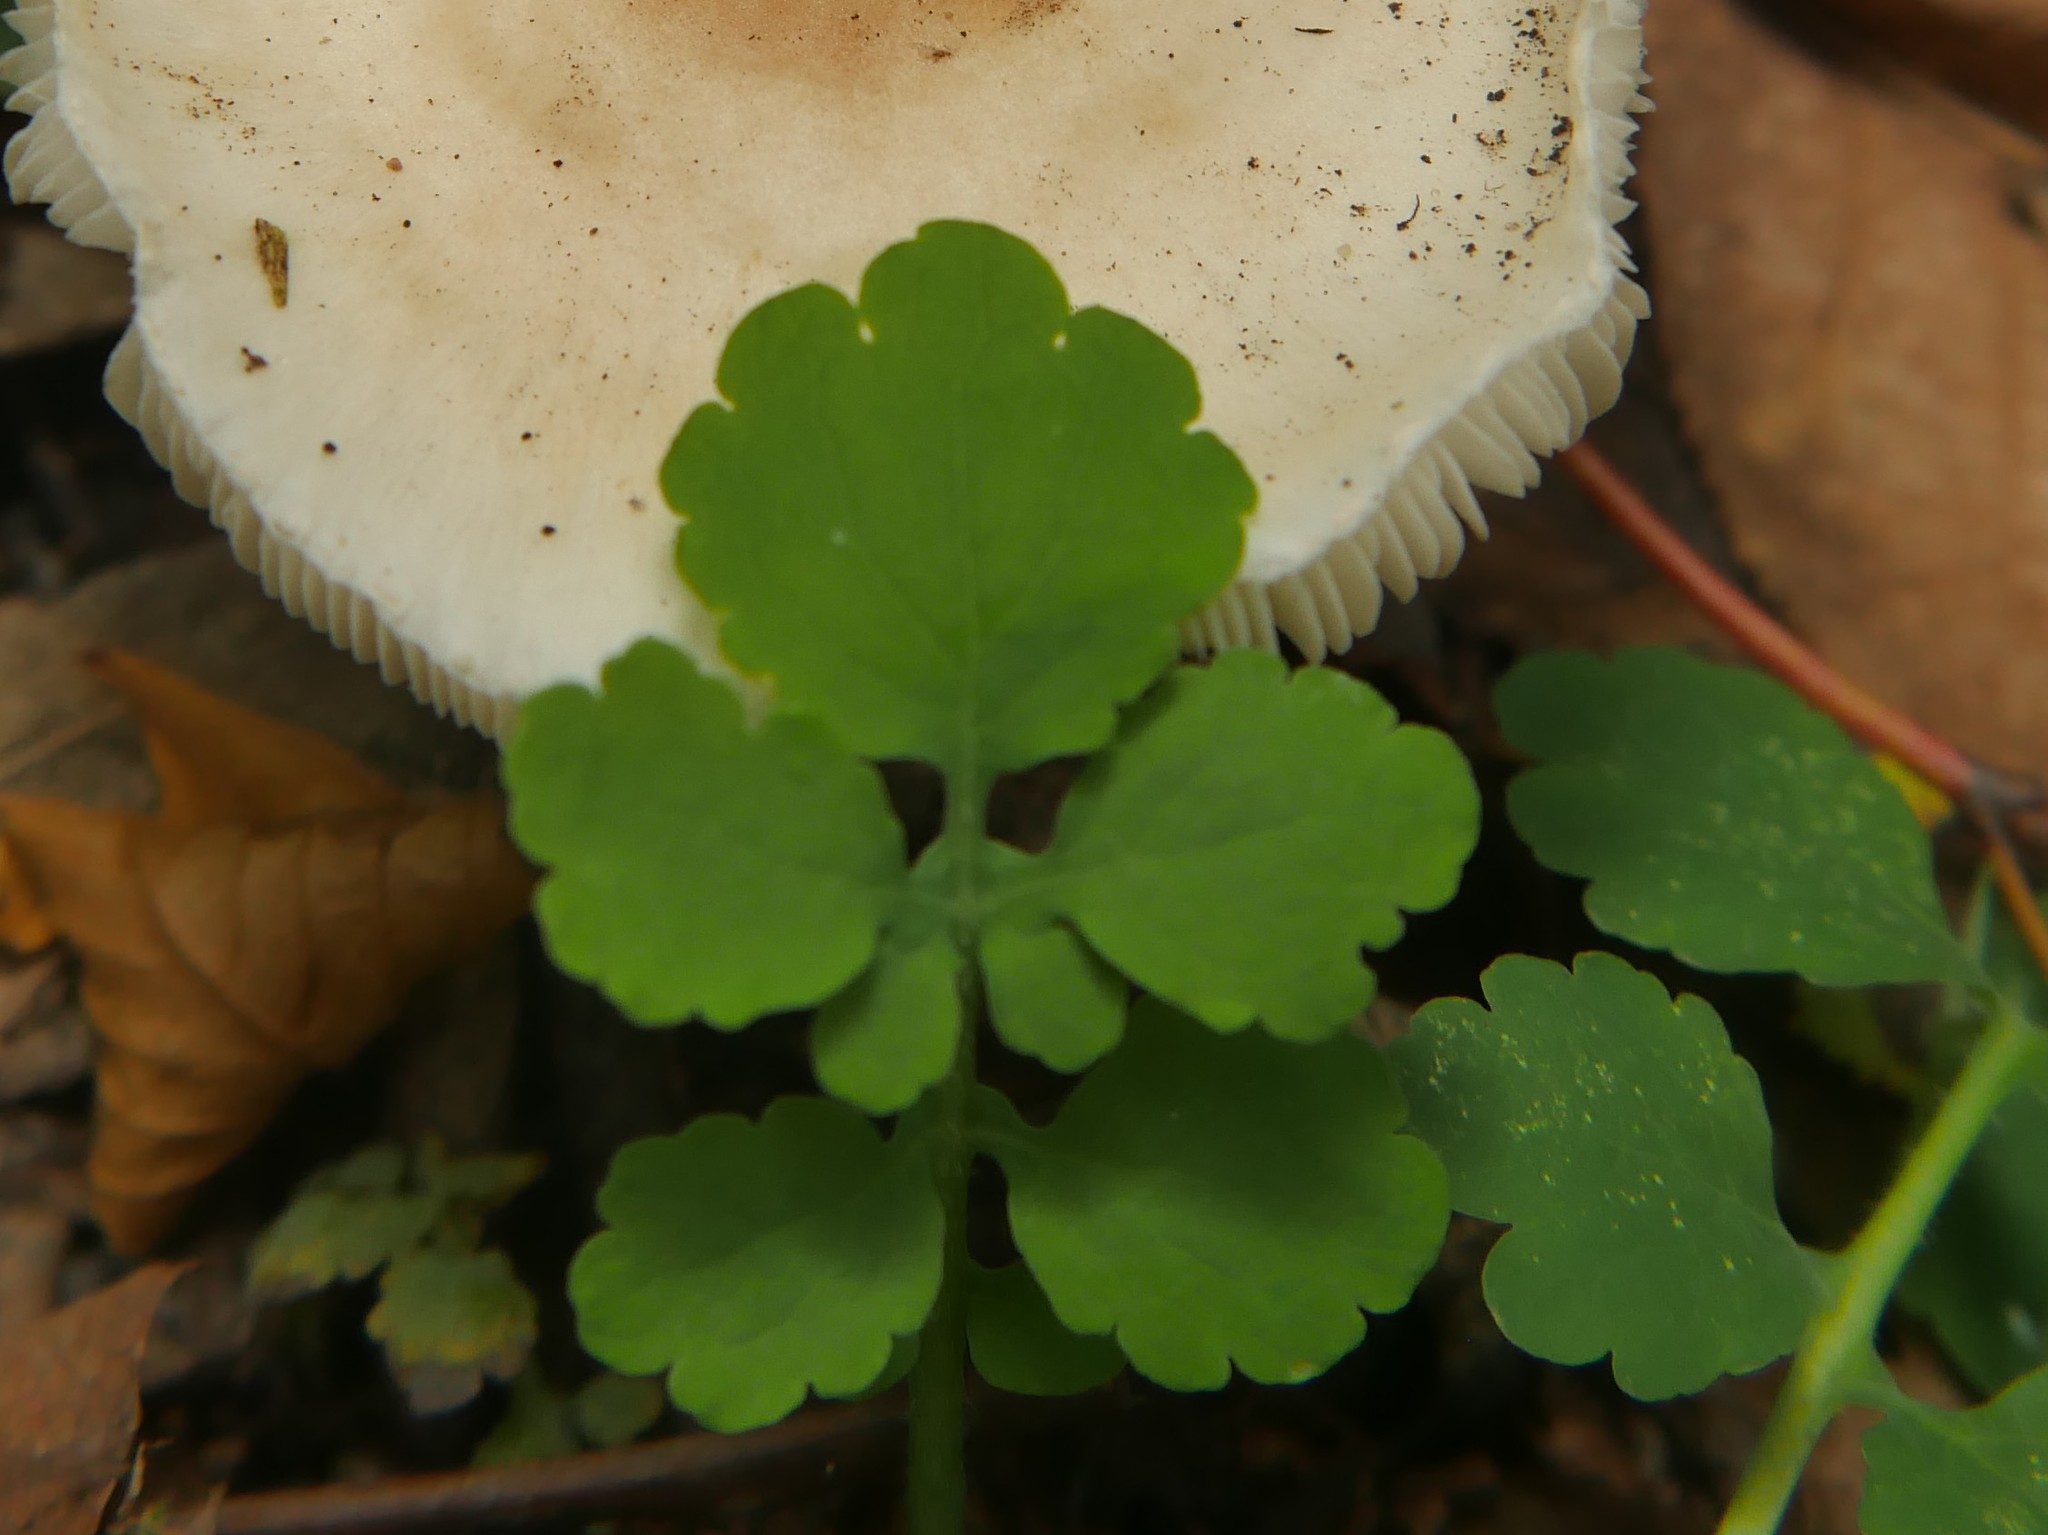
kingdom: Plantae
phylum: Tracheophyta
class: Magnoliopsida
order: Ranunculales
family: Papaveraceae
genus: Chelidonium
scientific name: Chelidonium majus
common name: Greater celandine
